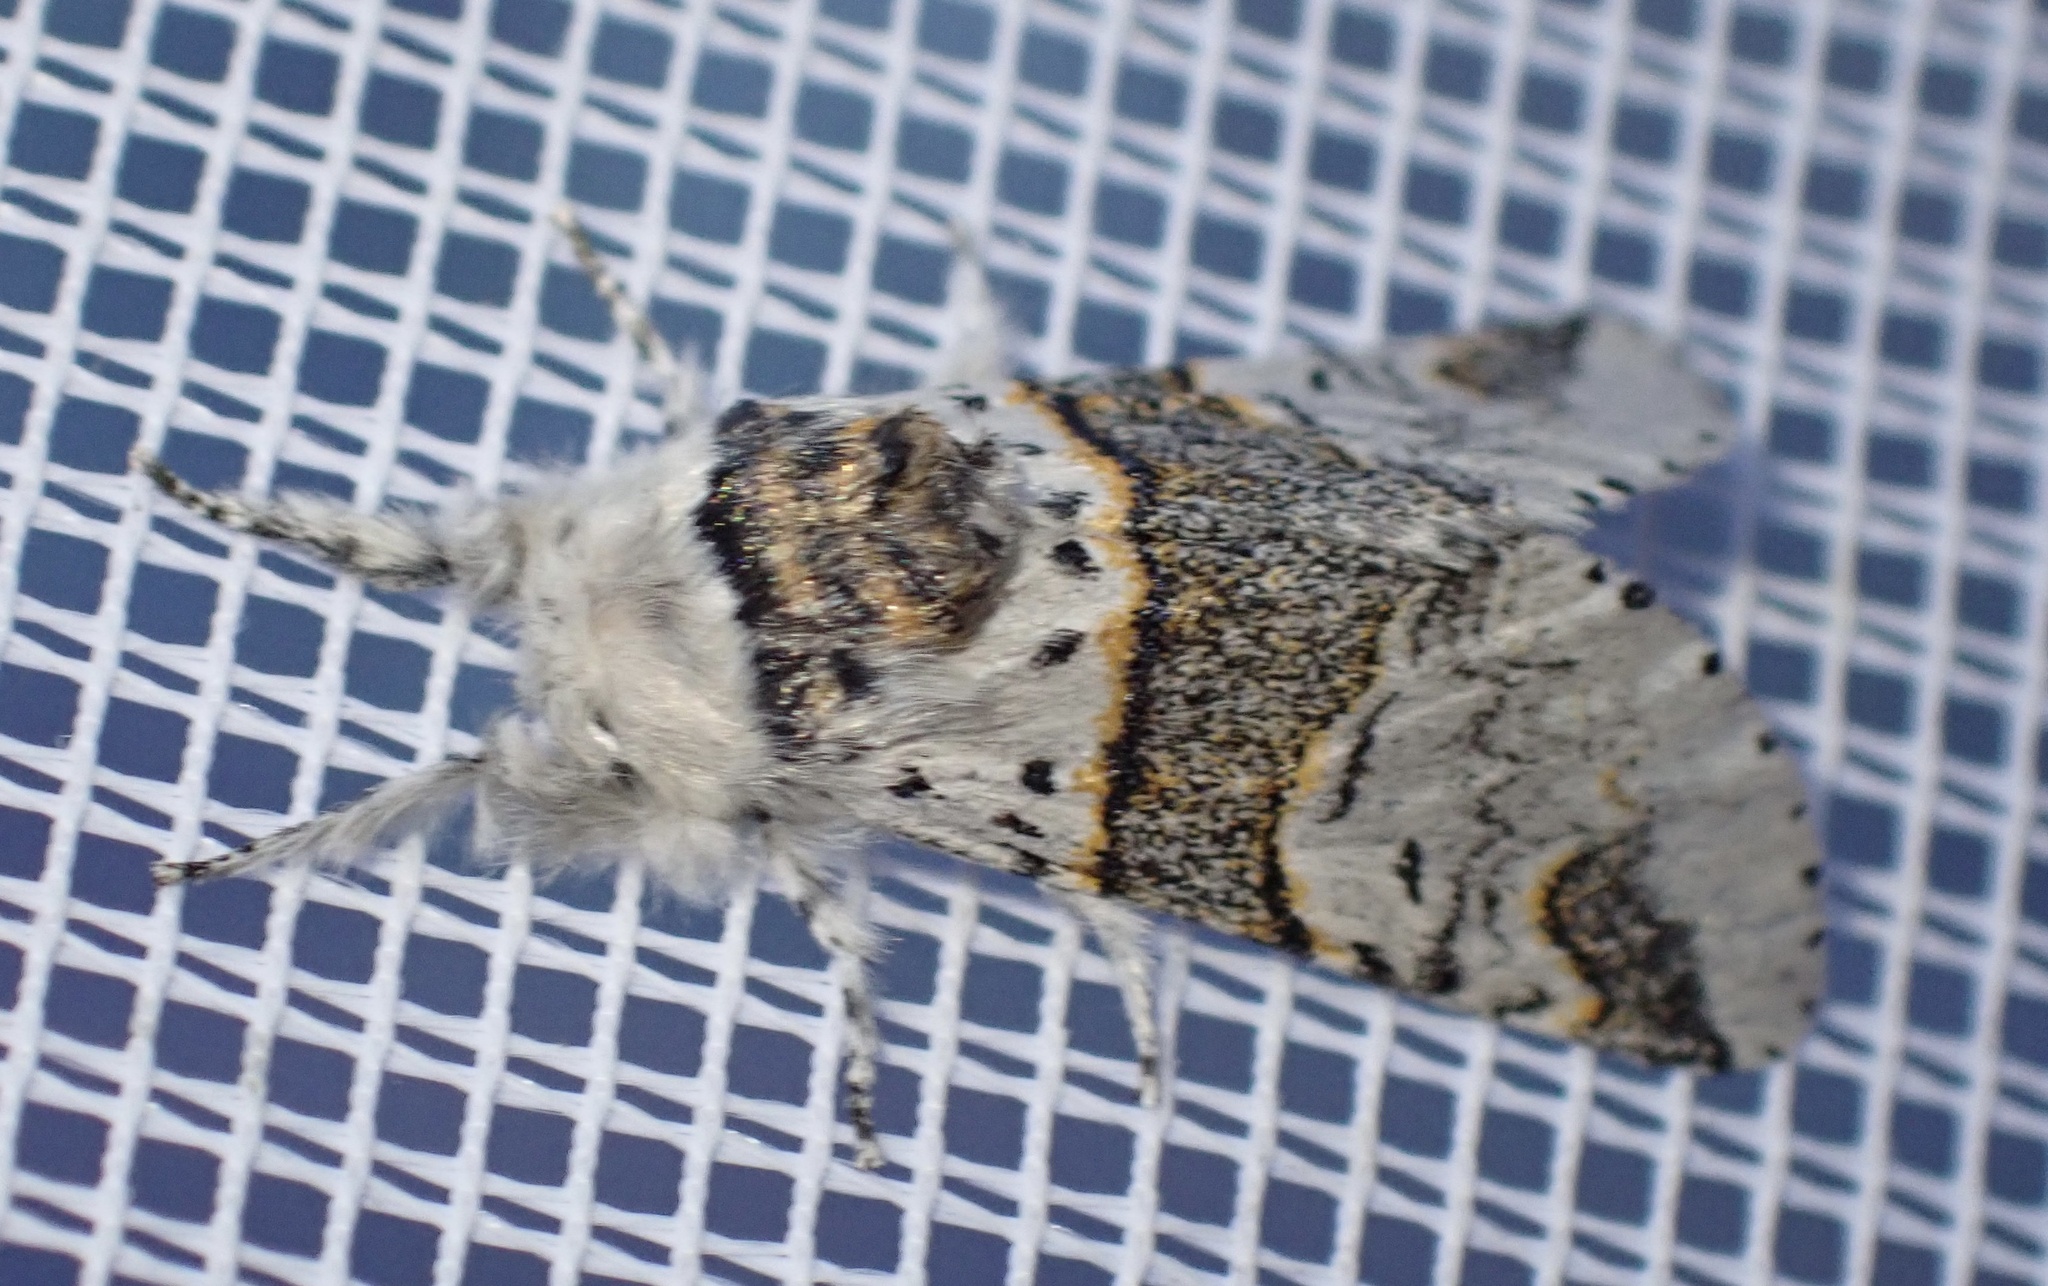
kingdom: Animalia
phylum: Arthropoda
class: Insecta
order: Lepidoptera
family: Notodontidae
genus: Furcula
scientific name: Furcula furcula
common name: Sallow kitten
